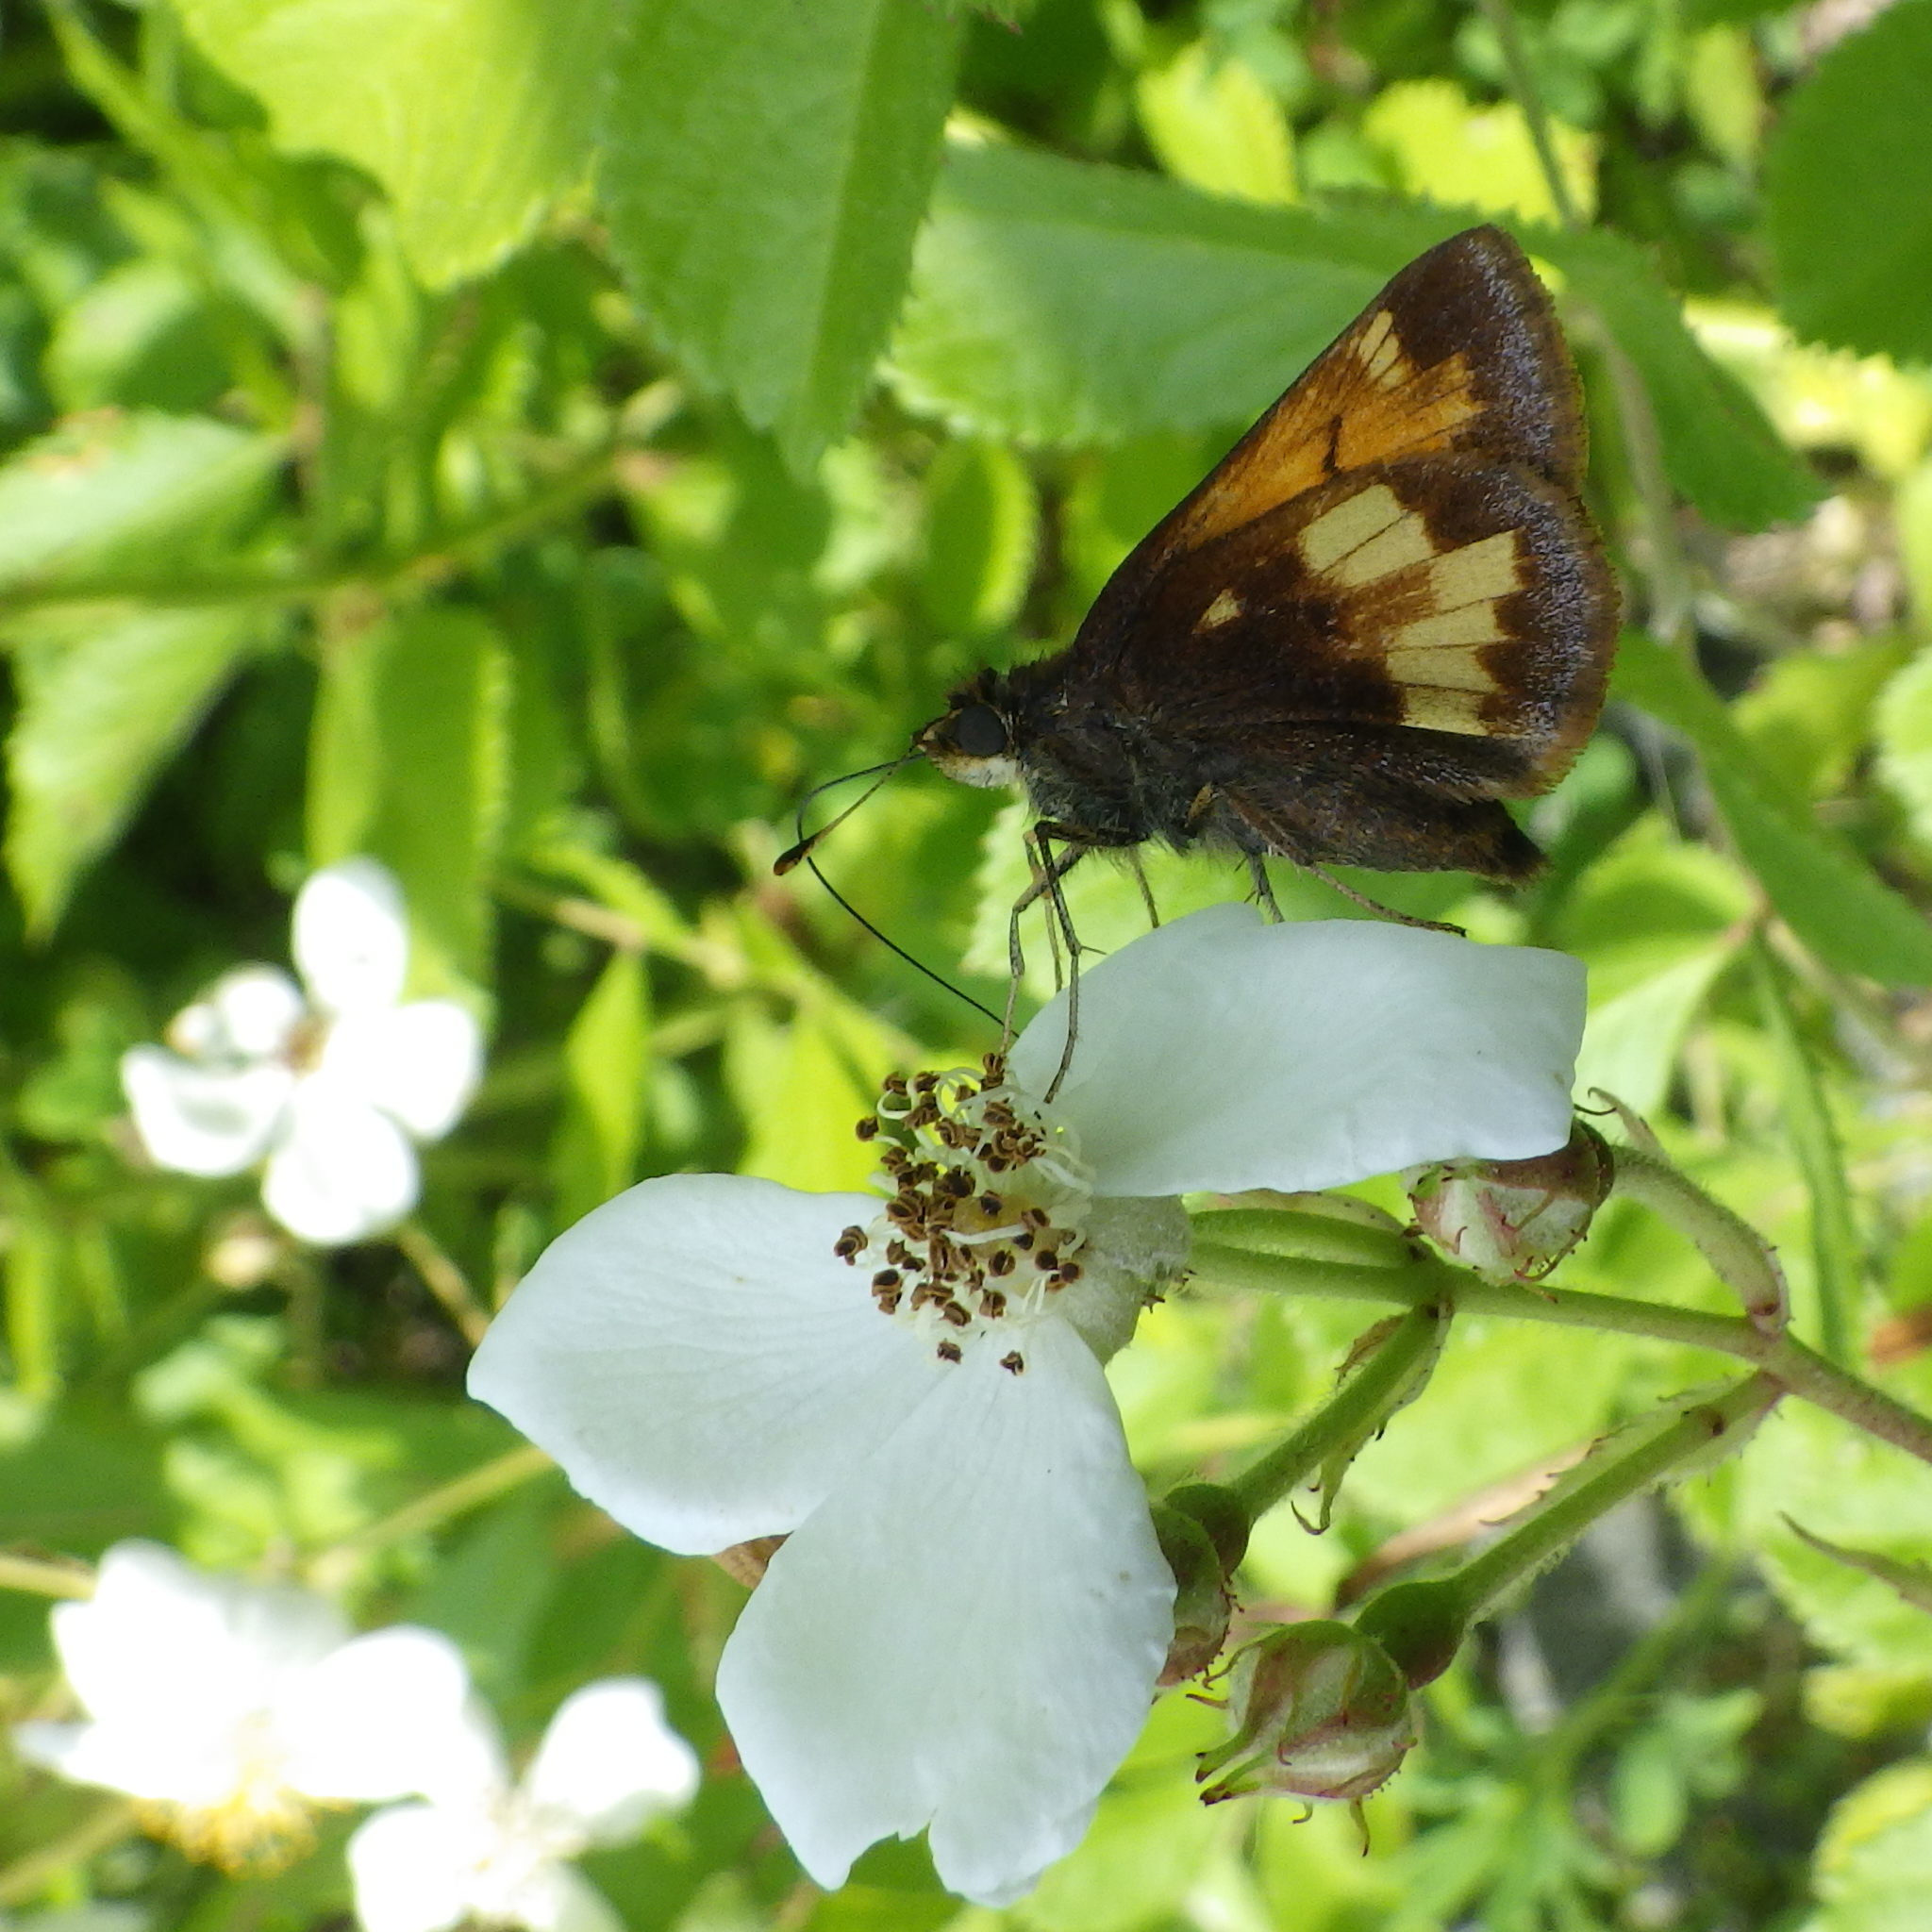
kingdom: Animalia
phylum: Arthropoda
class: Insecta
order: Lepidoptera
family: Hesperiidae
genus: Lon
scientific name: Lon hobomok
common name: Hobomok skipper
